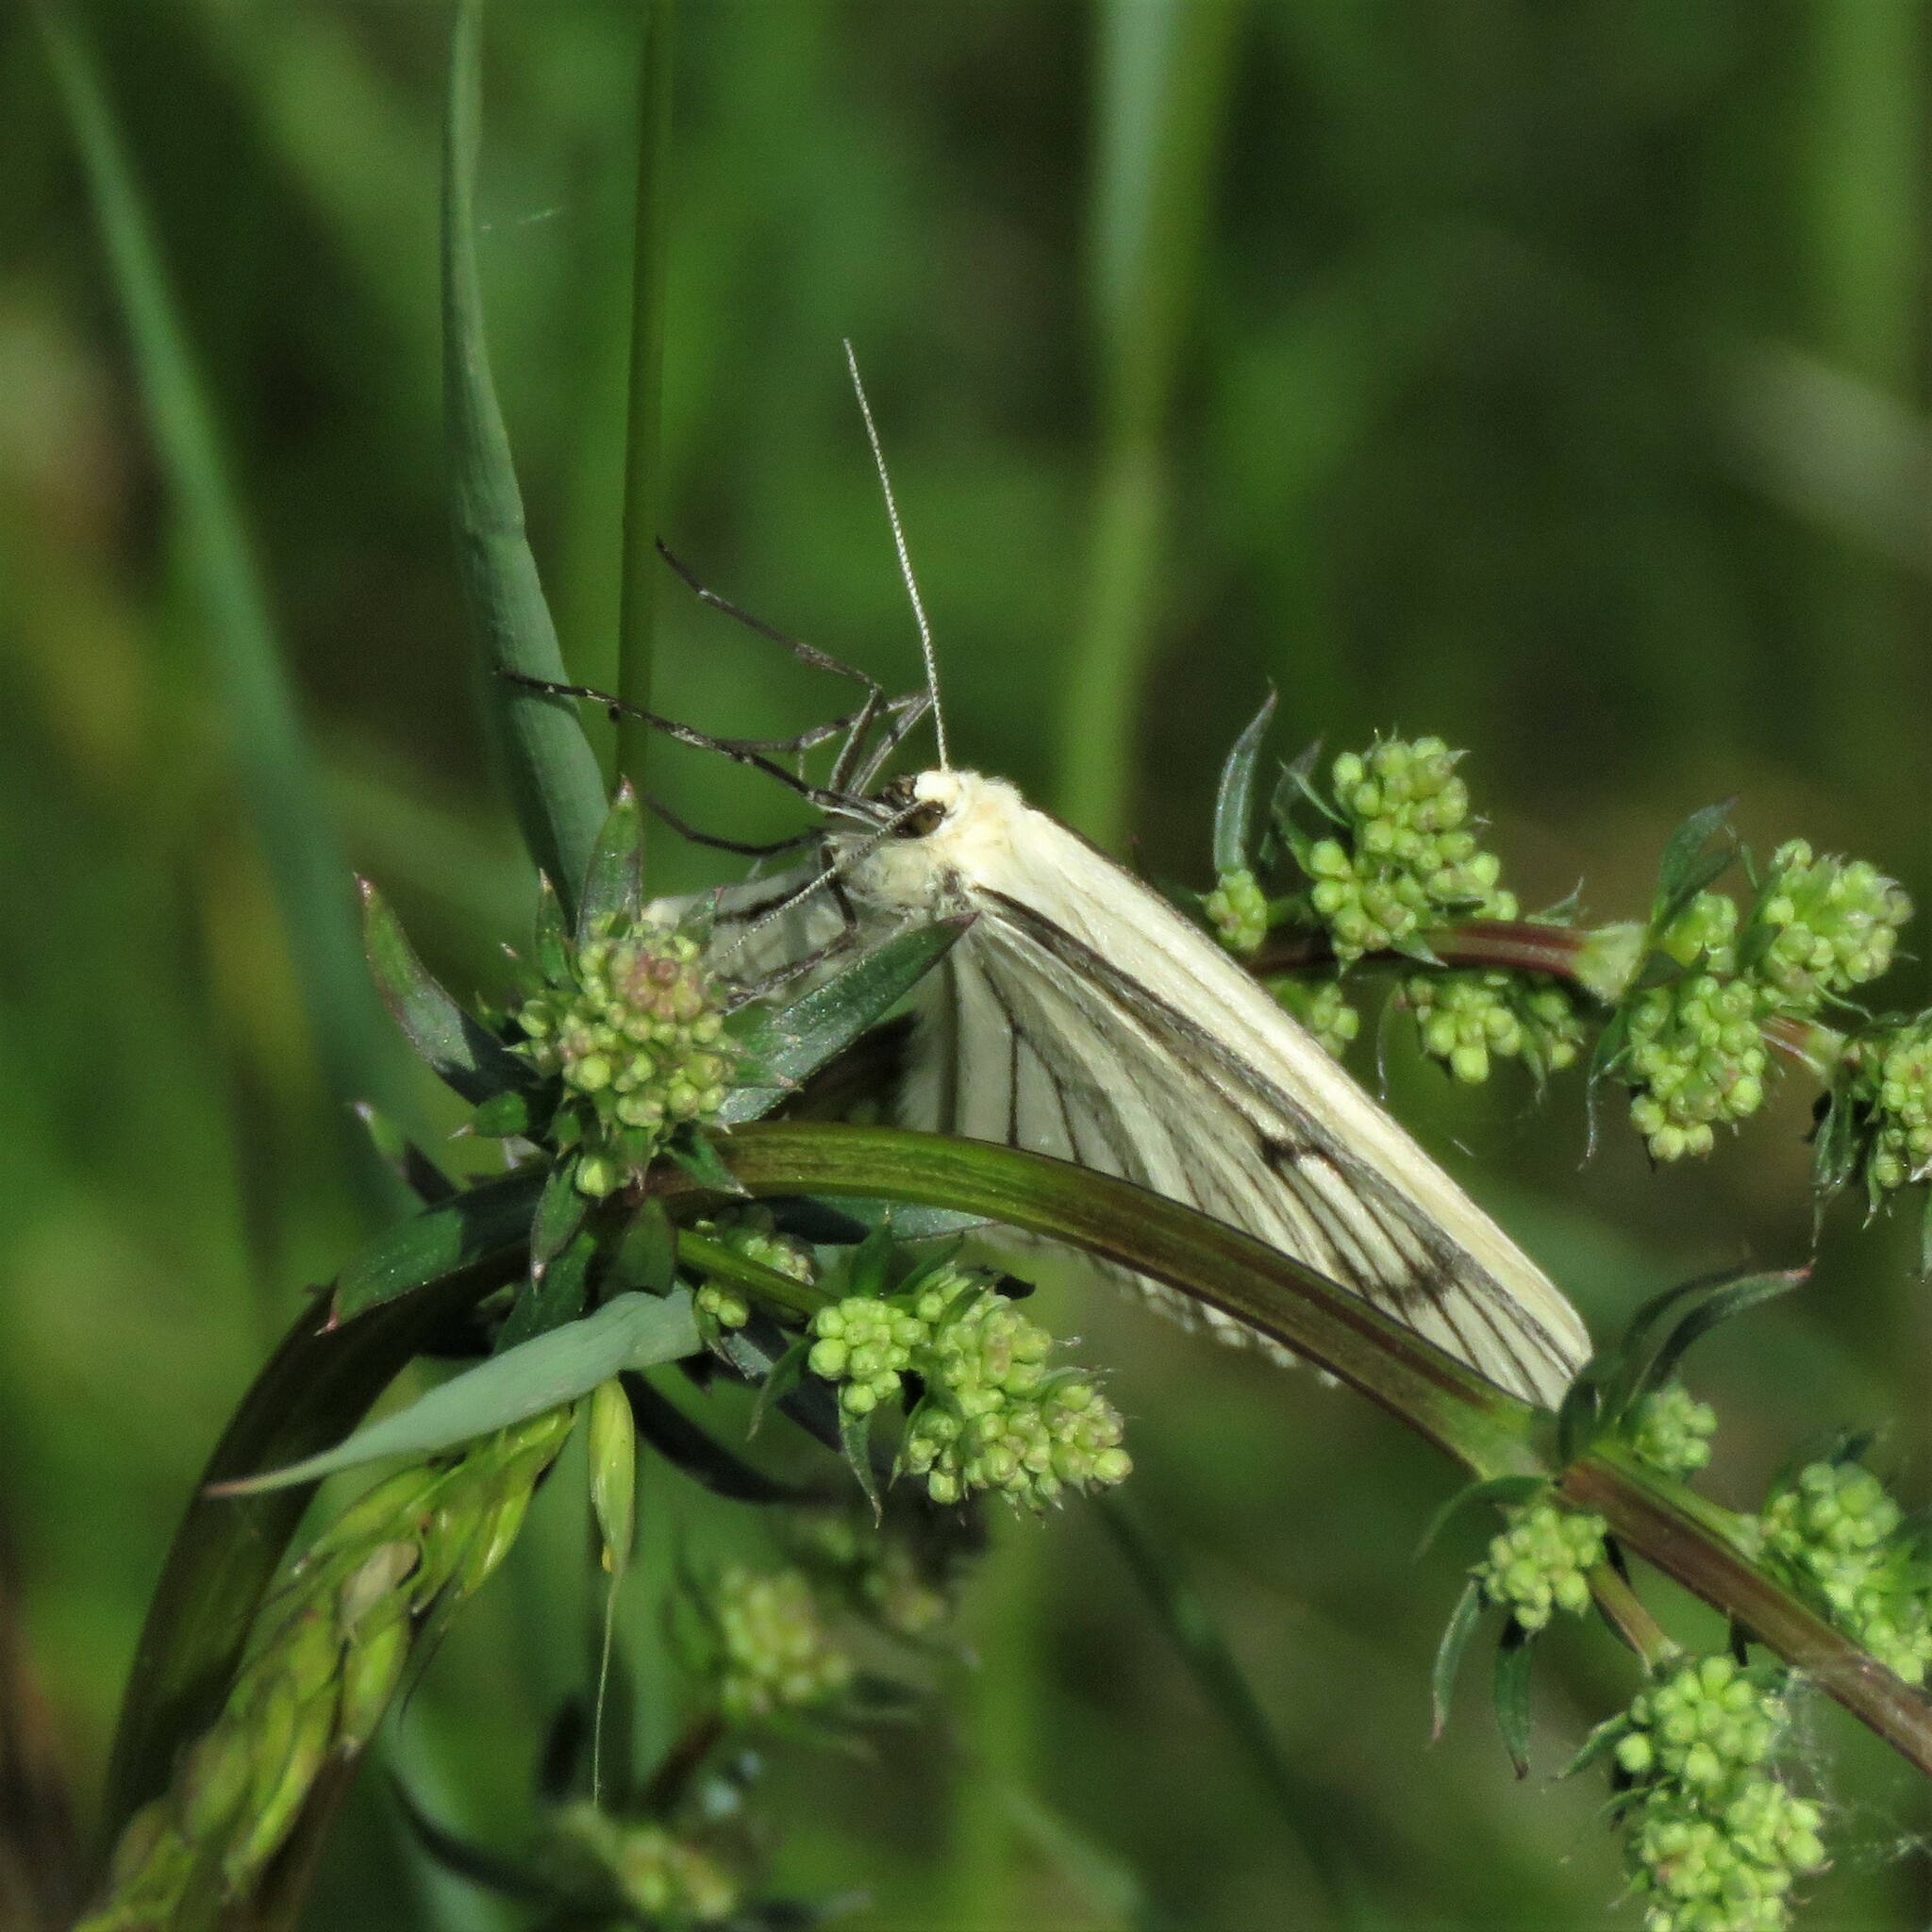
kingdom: Animalia
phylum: Arthropoda
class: Insecta
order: Lepidoptera
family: Geometridae
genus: Siona
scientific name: Siona lineata
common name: Black-veined moth
